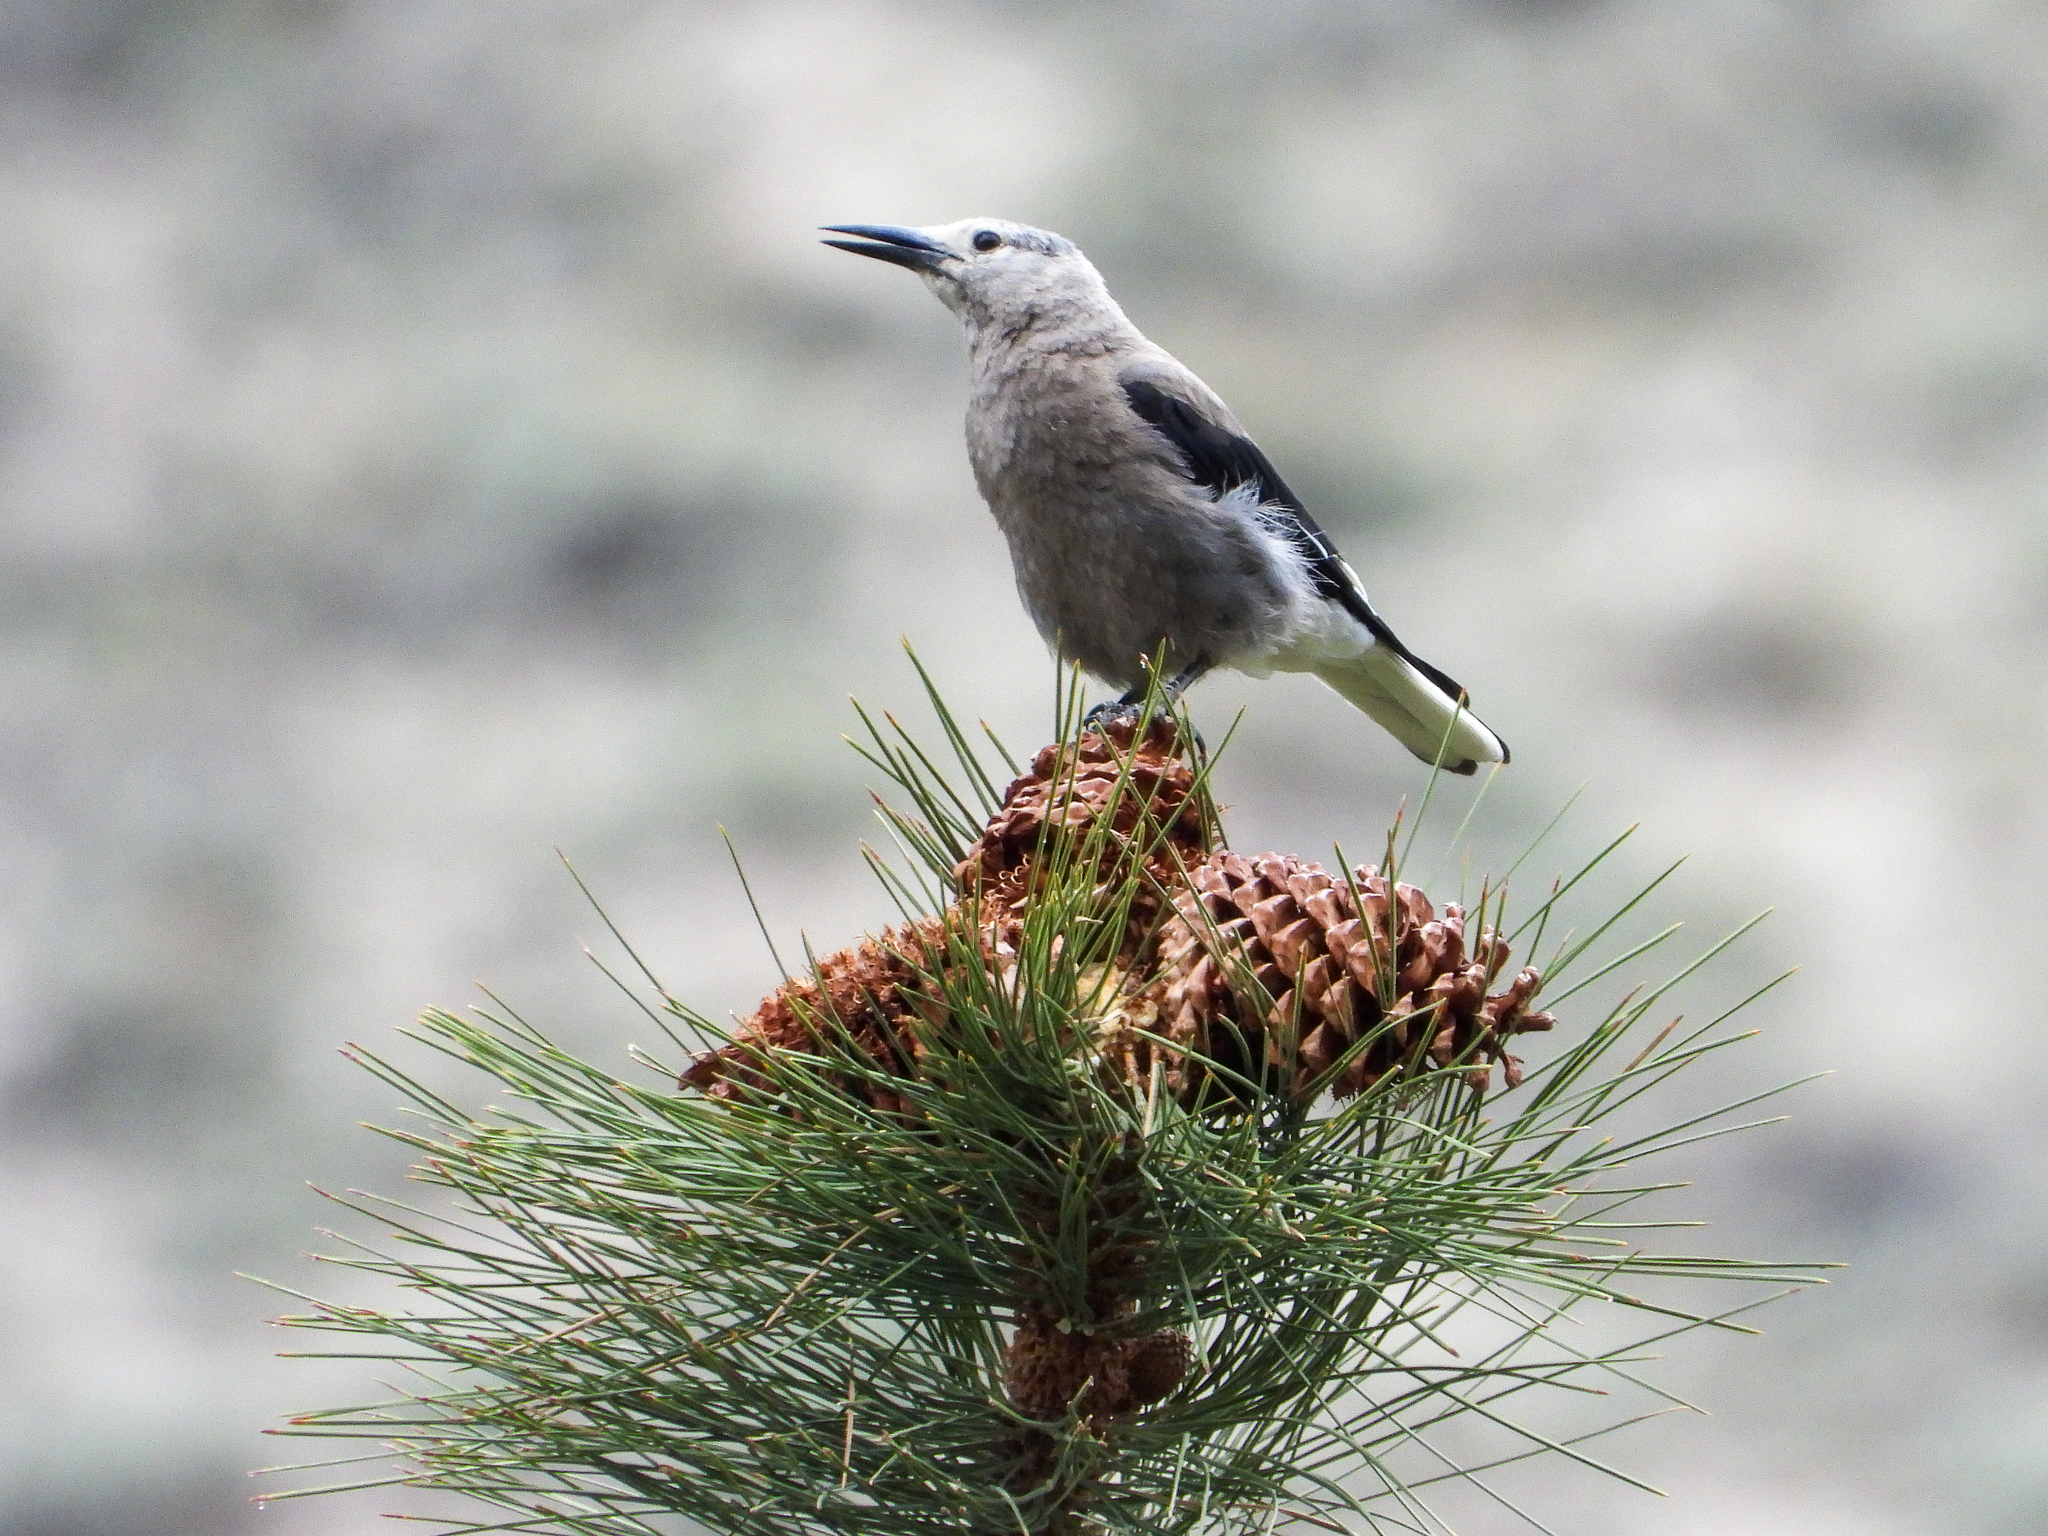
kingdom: Animalia
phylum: Chordata
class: Aves
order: Passeriformes
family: Corvidae
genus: Nucifraga
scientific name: Nucifraga columbiana
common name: Clark's nutcracker
